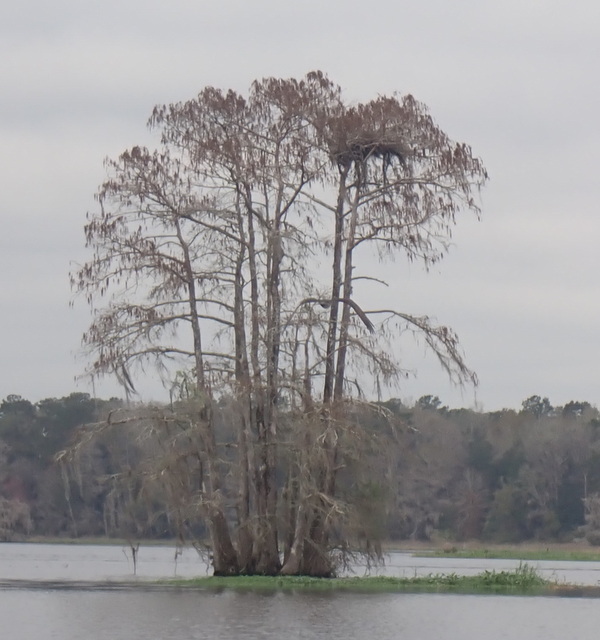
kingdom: Animalia
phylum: Chordata
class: Aves
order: Accipitriformes
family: Pandionidae
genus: Pandion
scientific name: Pandion haliaetus
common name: Osprey
